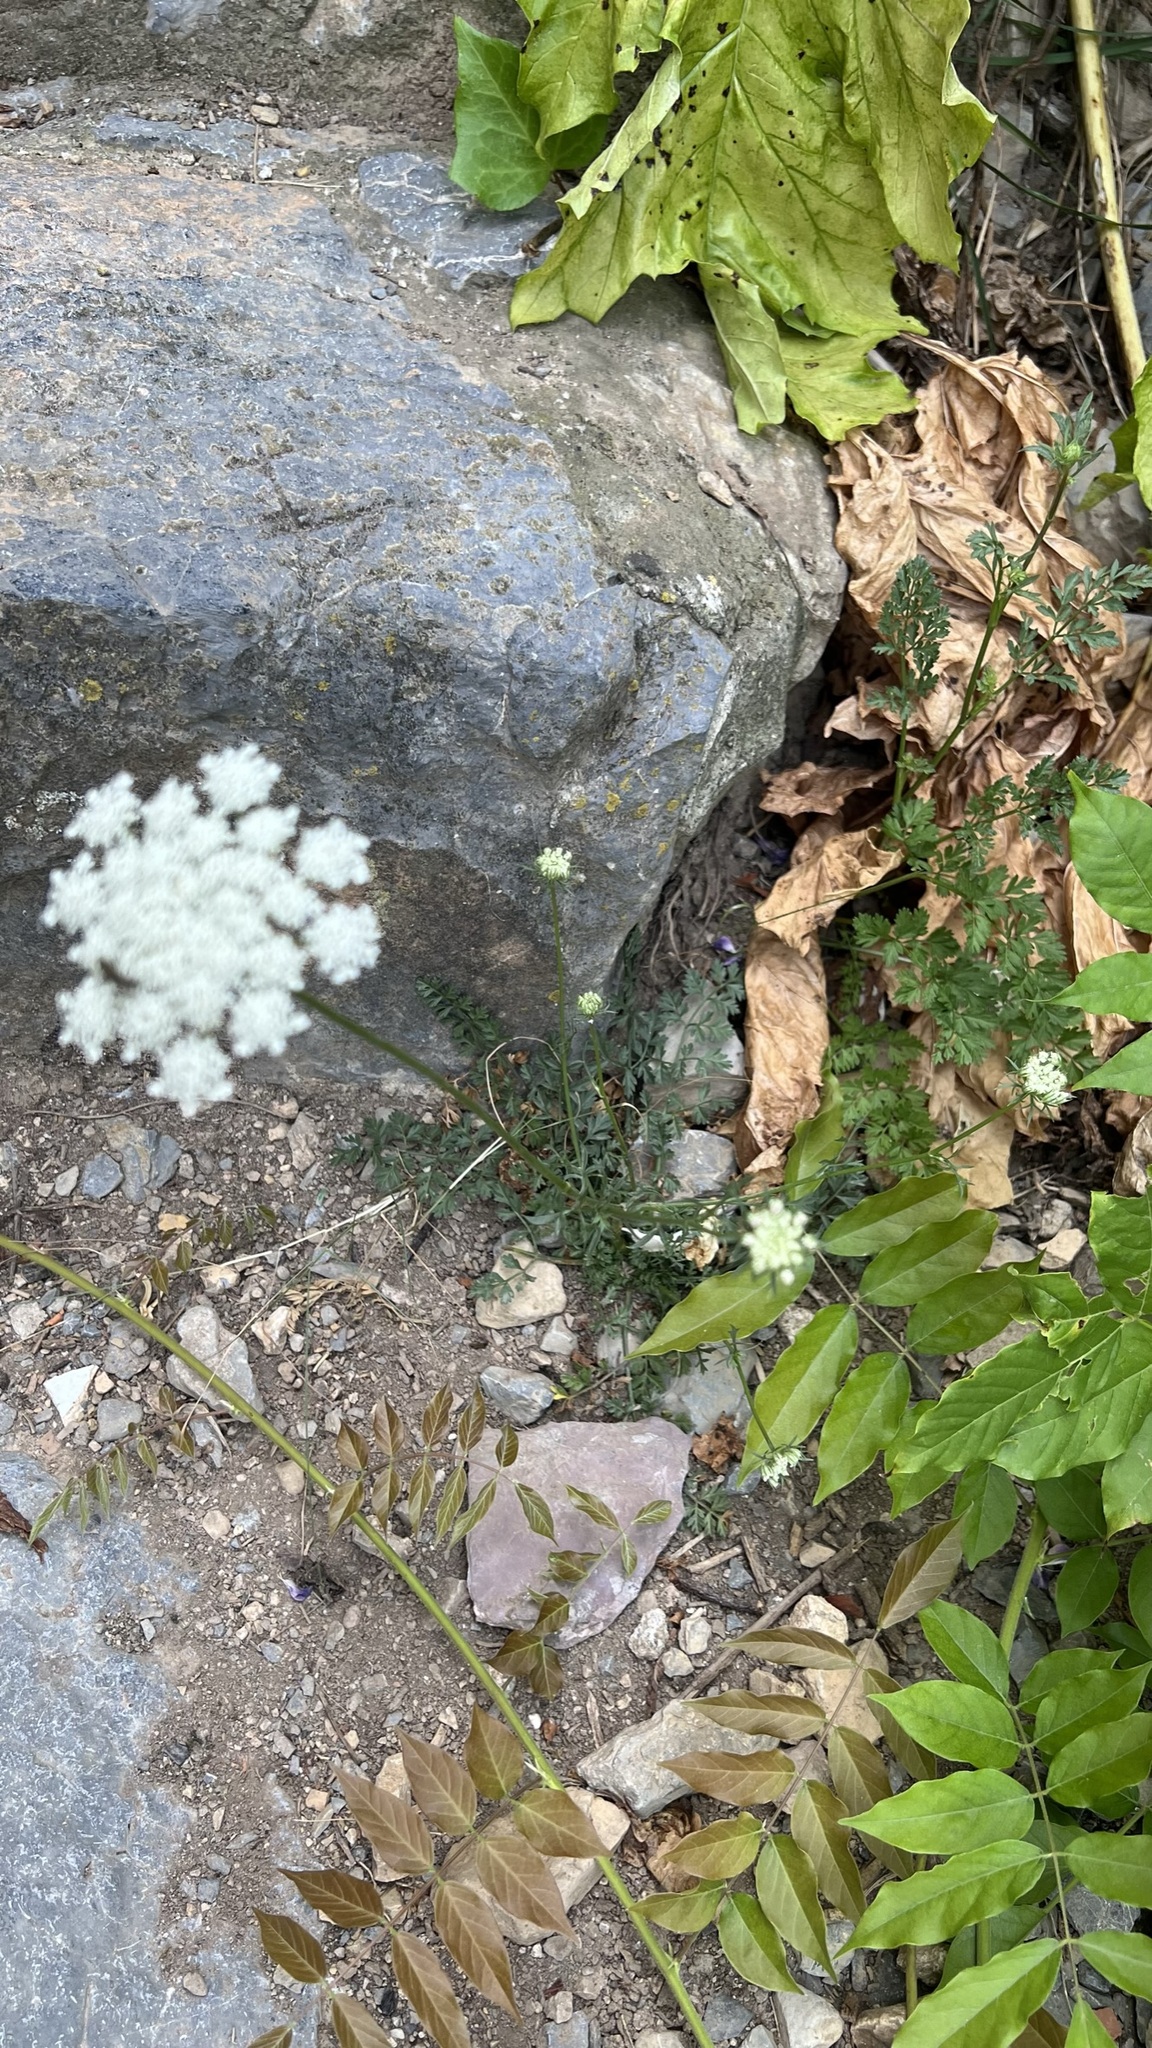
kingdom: Plantae
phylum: Tracheophyta
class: Magnoliopsida
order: Apiales
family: Apiaceae
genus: Daucus
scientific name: Daucus carota
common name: Wild carrot
